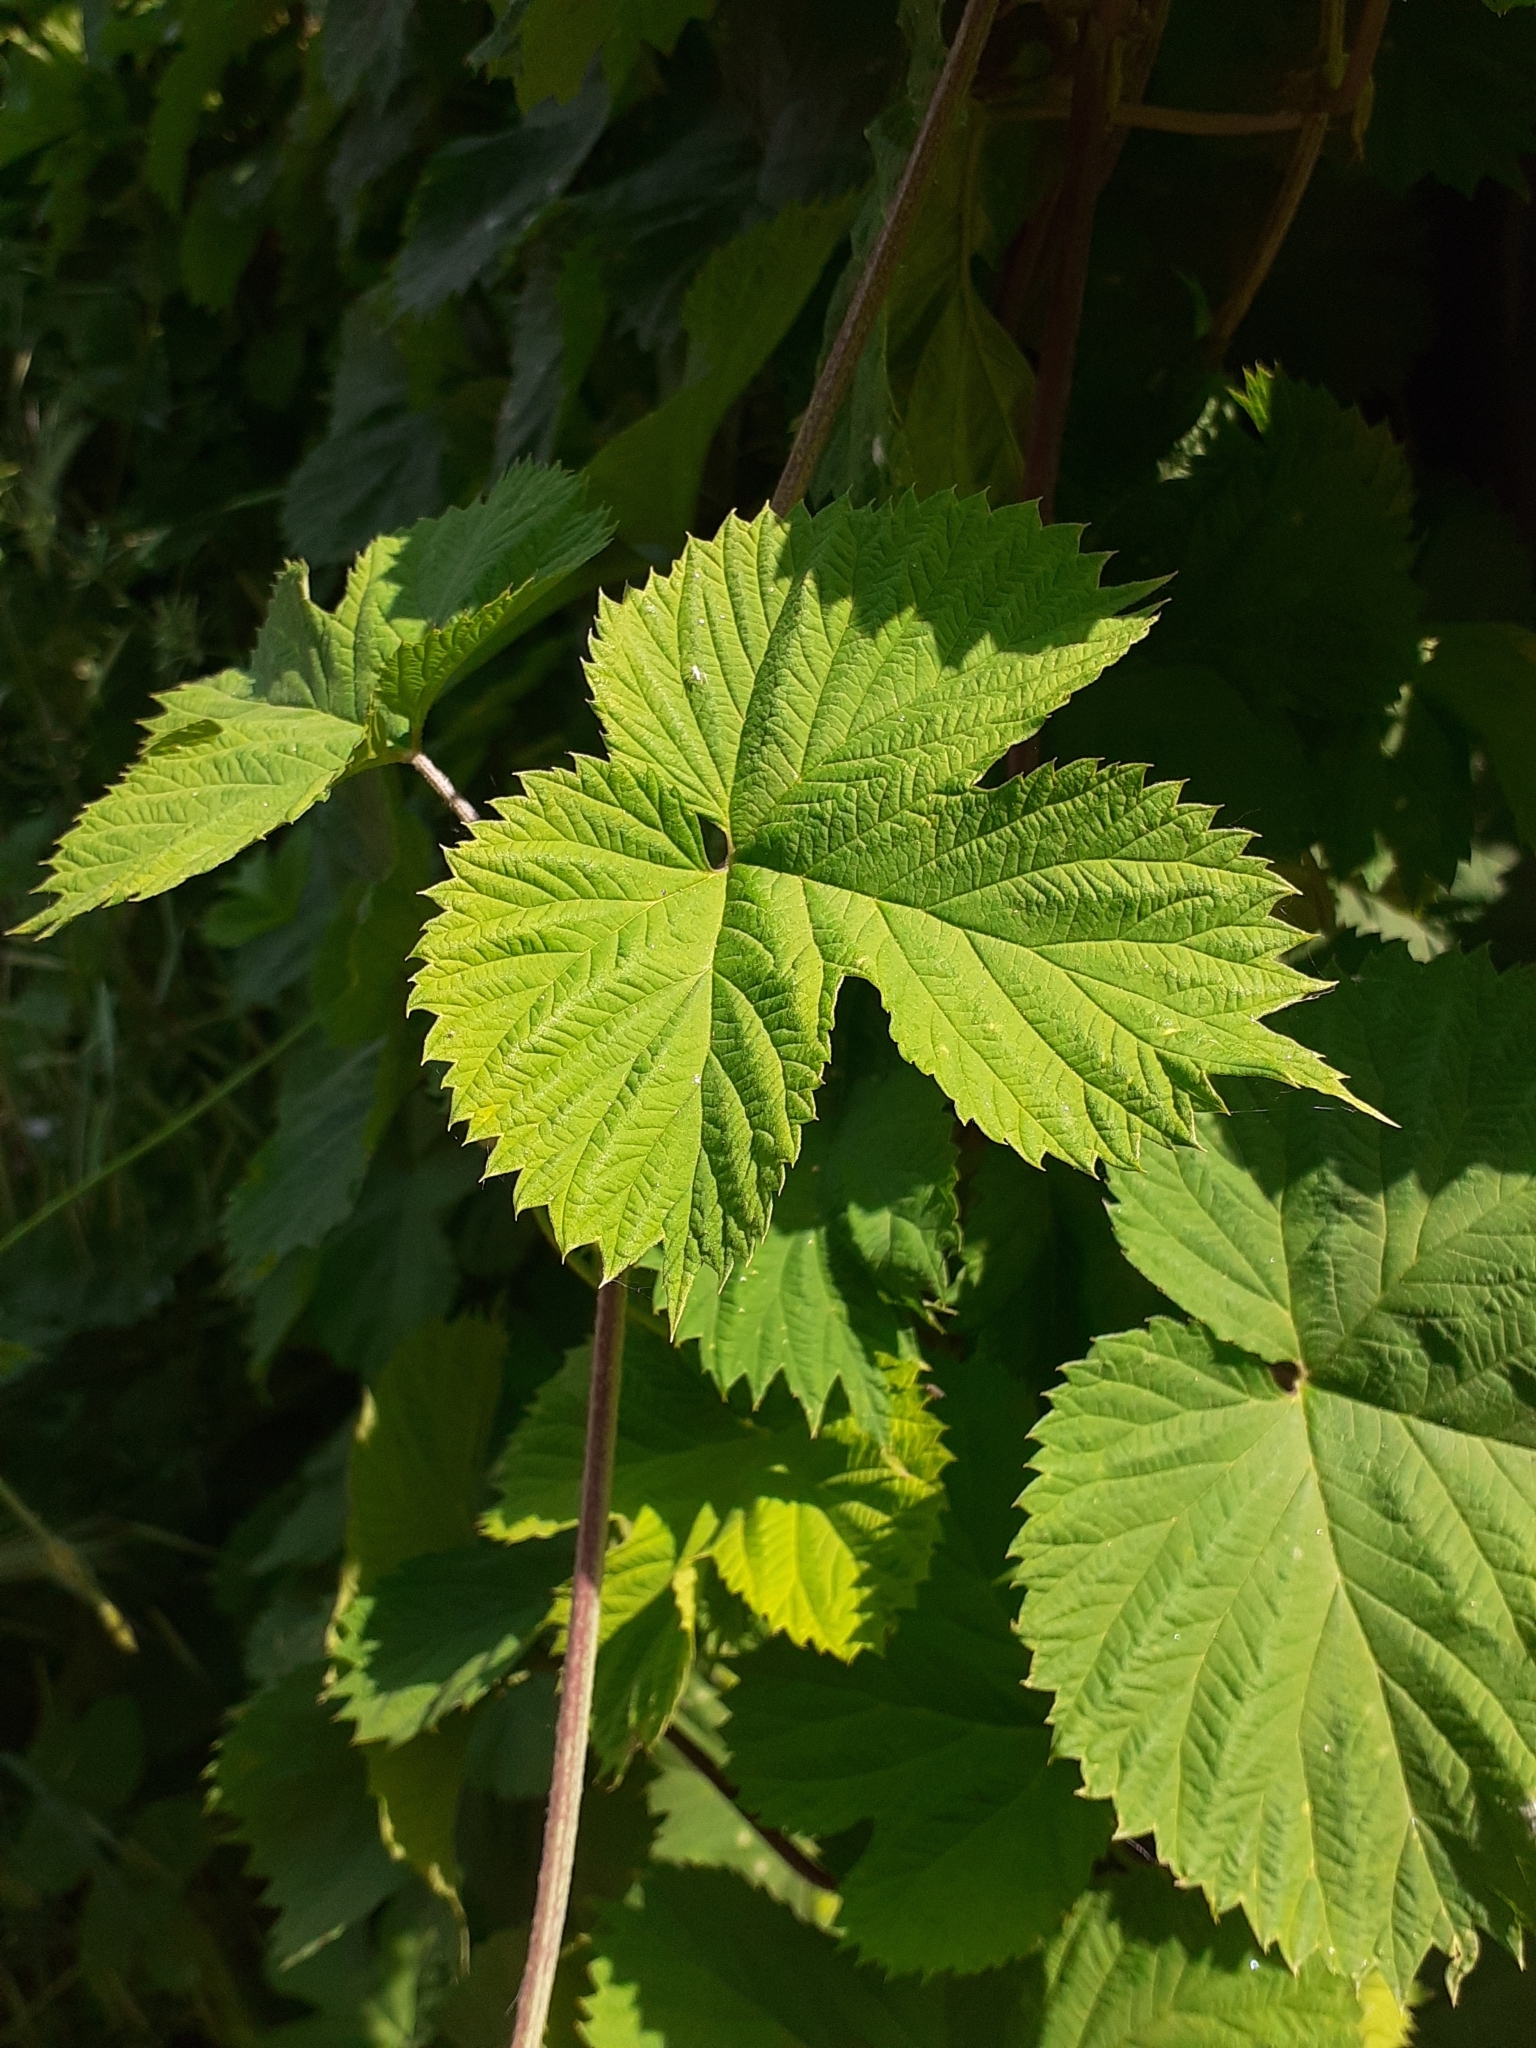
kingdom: Plantae
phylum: Tracheophyta
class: Magnoliopsida
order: Rosales
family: Cannabaceae
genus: Humulus
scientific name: Humulus lupulus
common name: Hop
